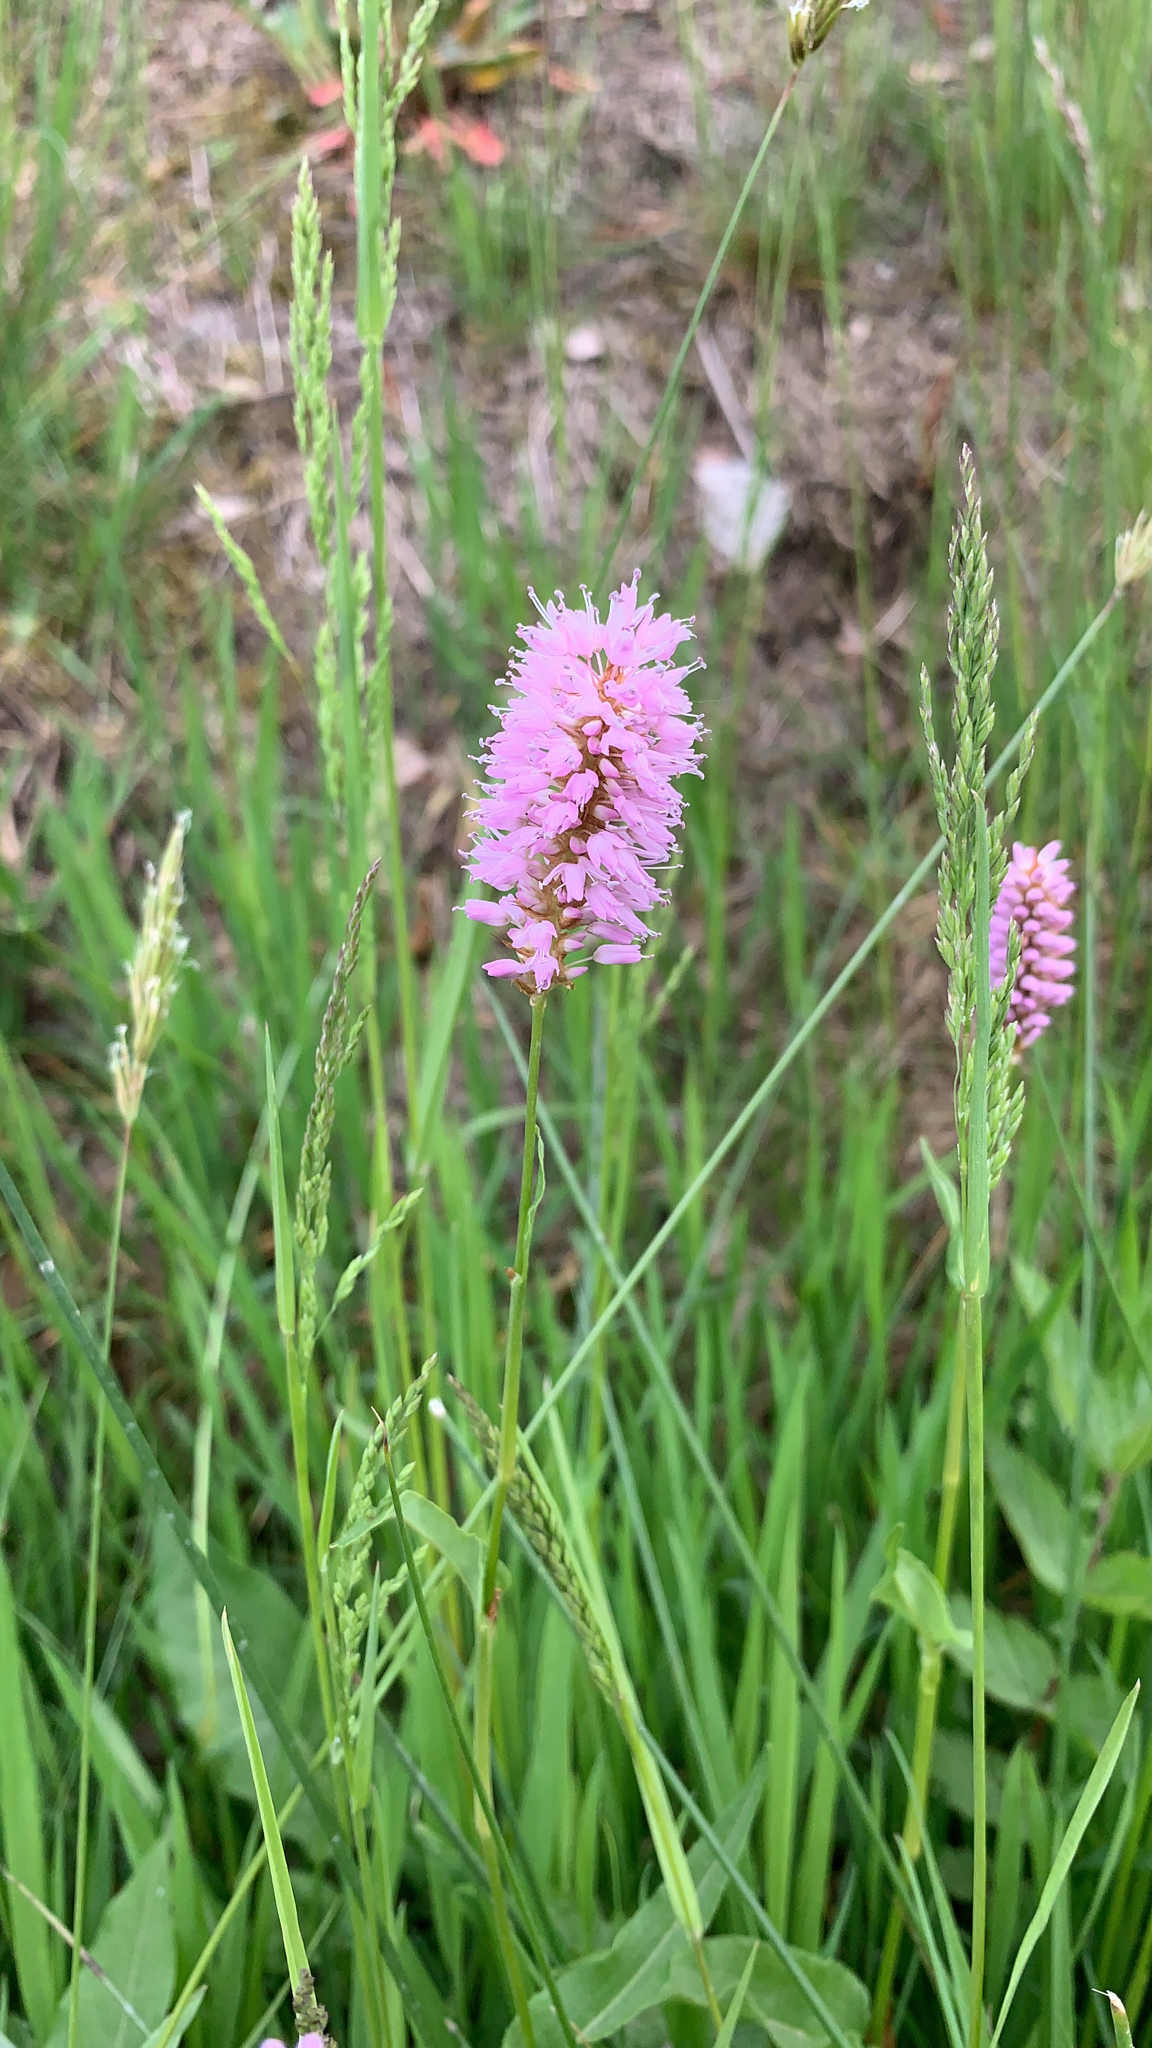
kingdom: Plantae
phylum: Tracheophyta
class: Magnoliopsida
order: Caryophyllales
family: Polygonaceae
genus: Bistorta
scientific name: Bistorta officinalis
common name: Common bistort
